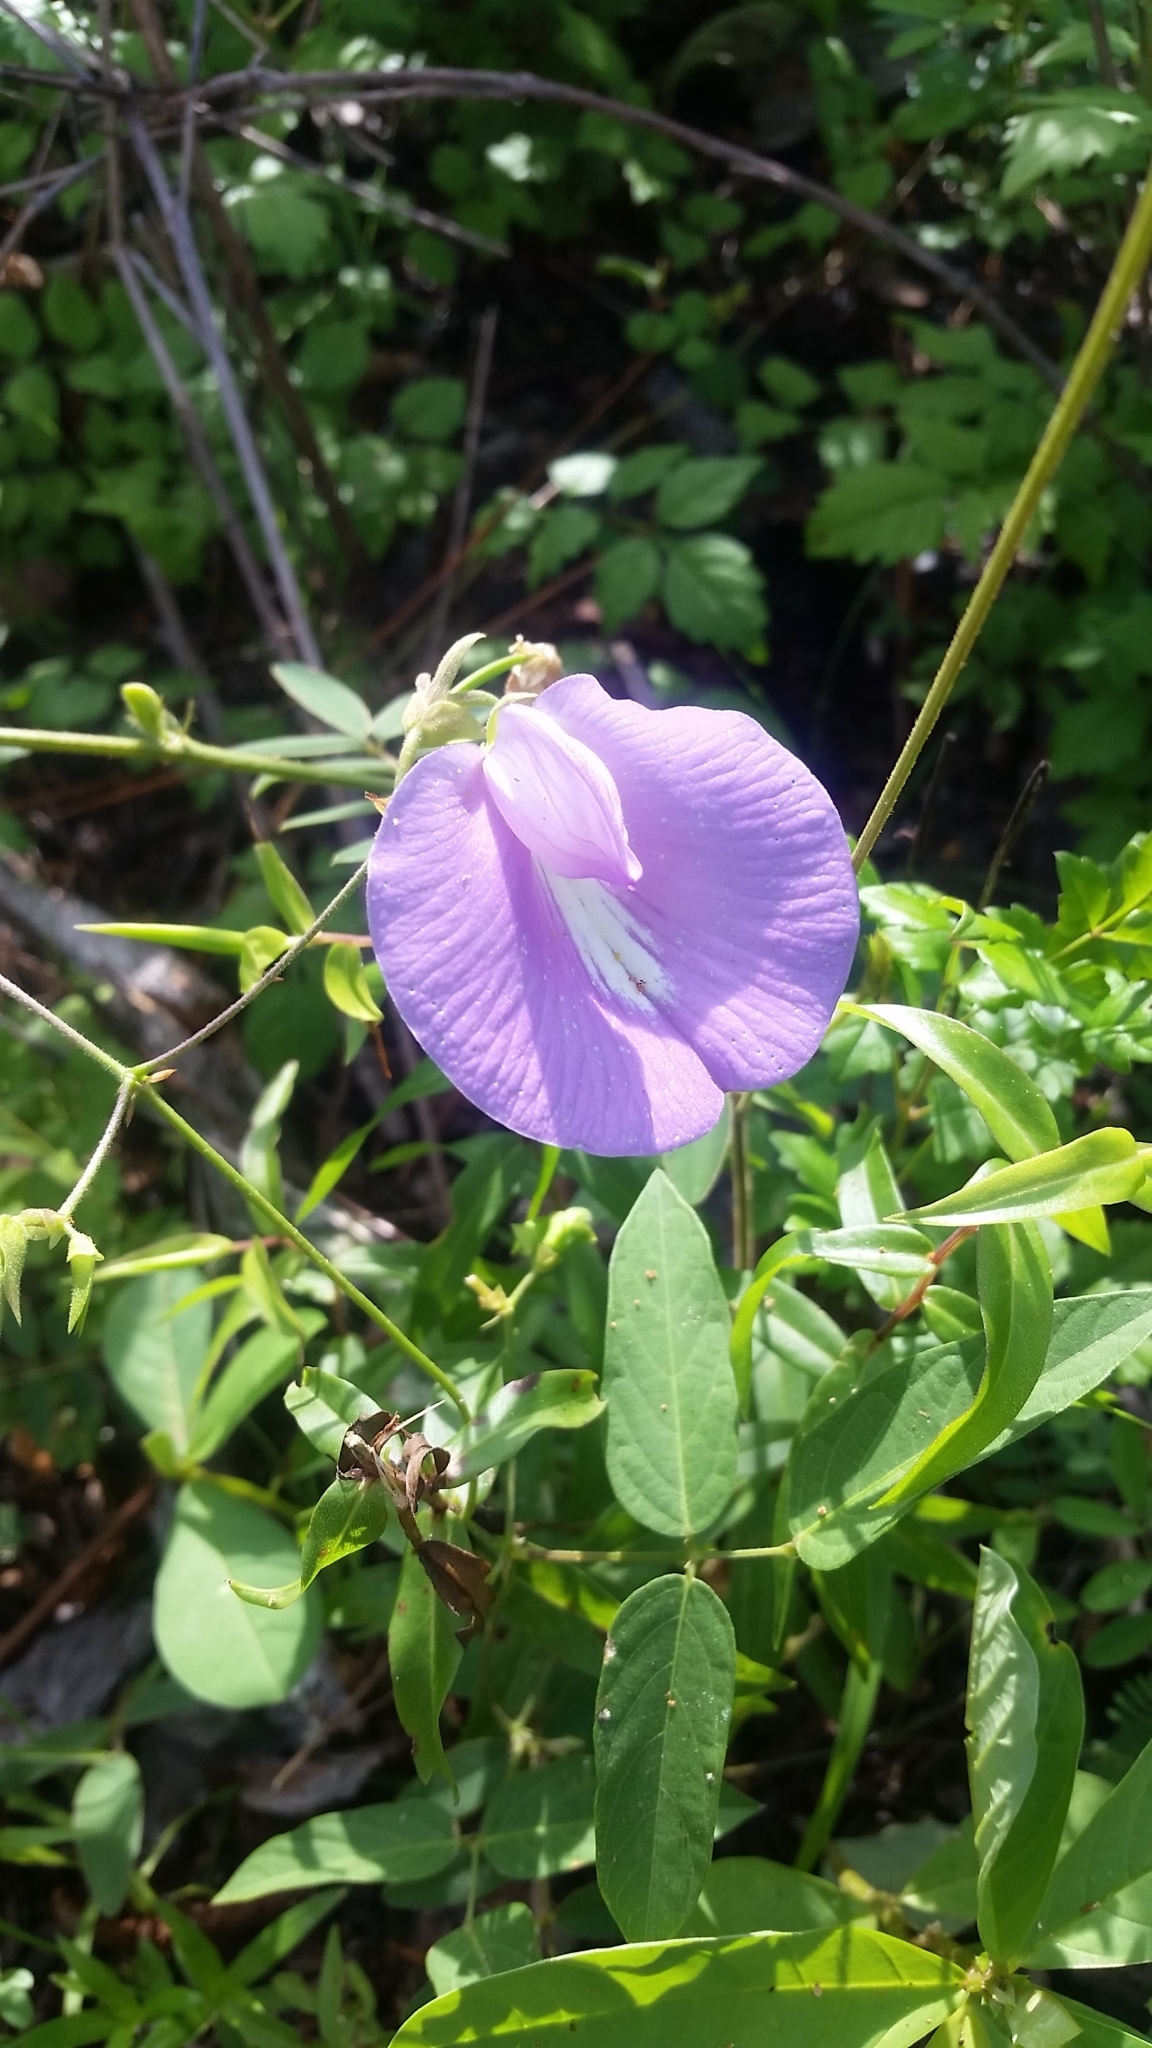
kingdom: Plantae
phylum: Tracheophyta
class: Magnoliopsida
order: Fabales
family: Fabaceae
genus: Centrosema
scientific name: Centrosema virginianum
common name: Butterfly-pea
